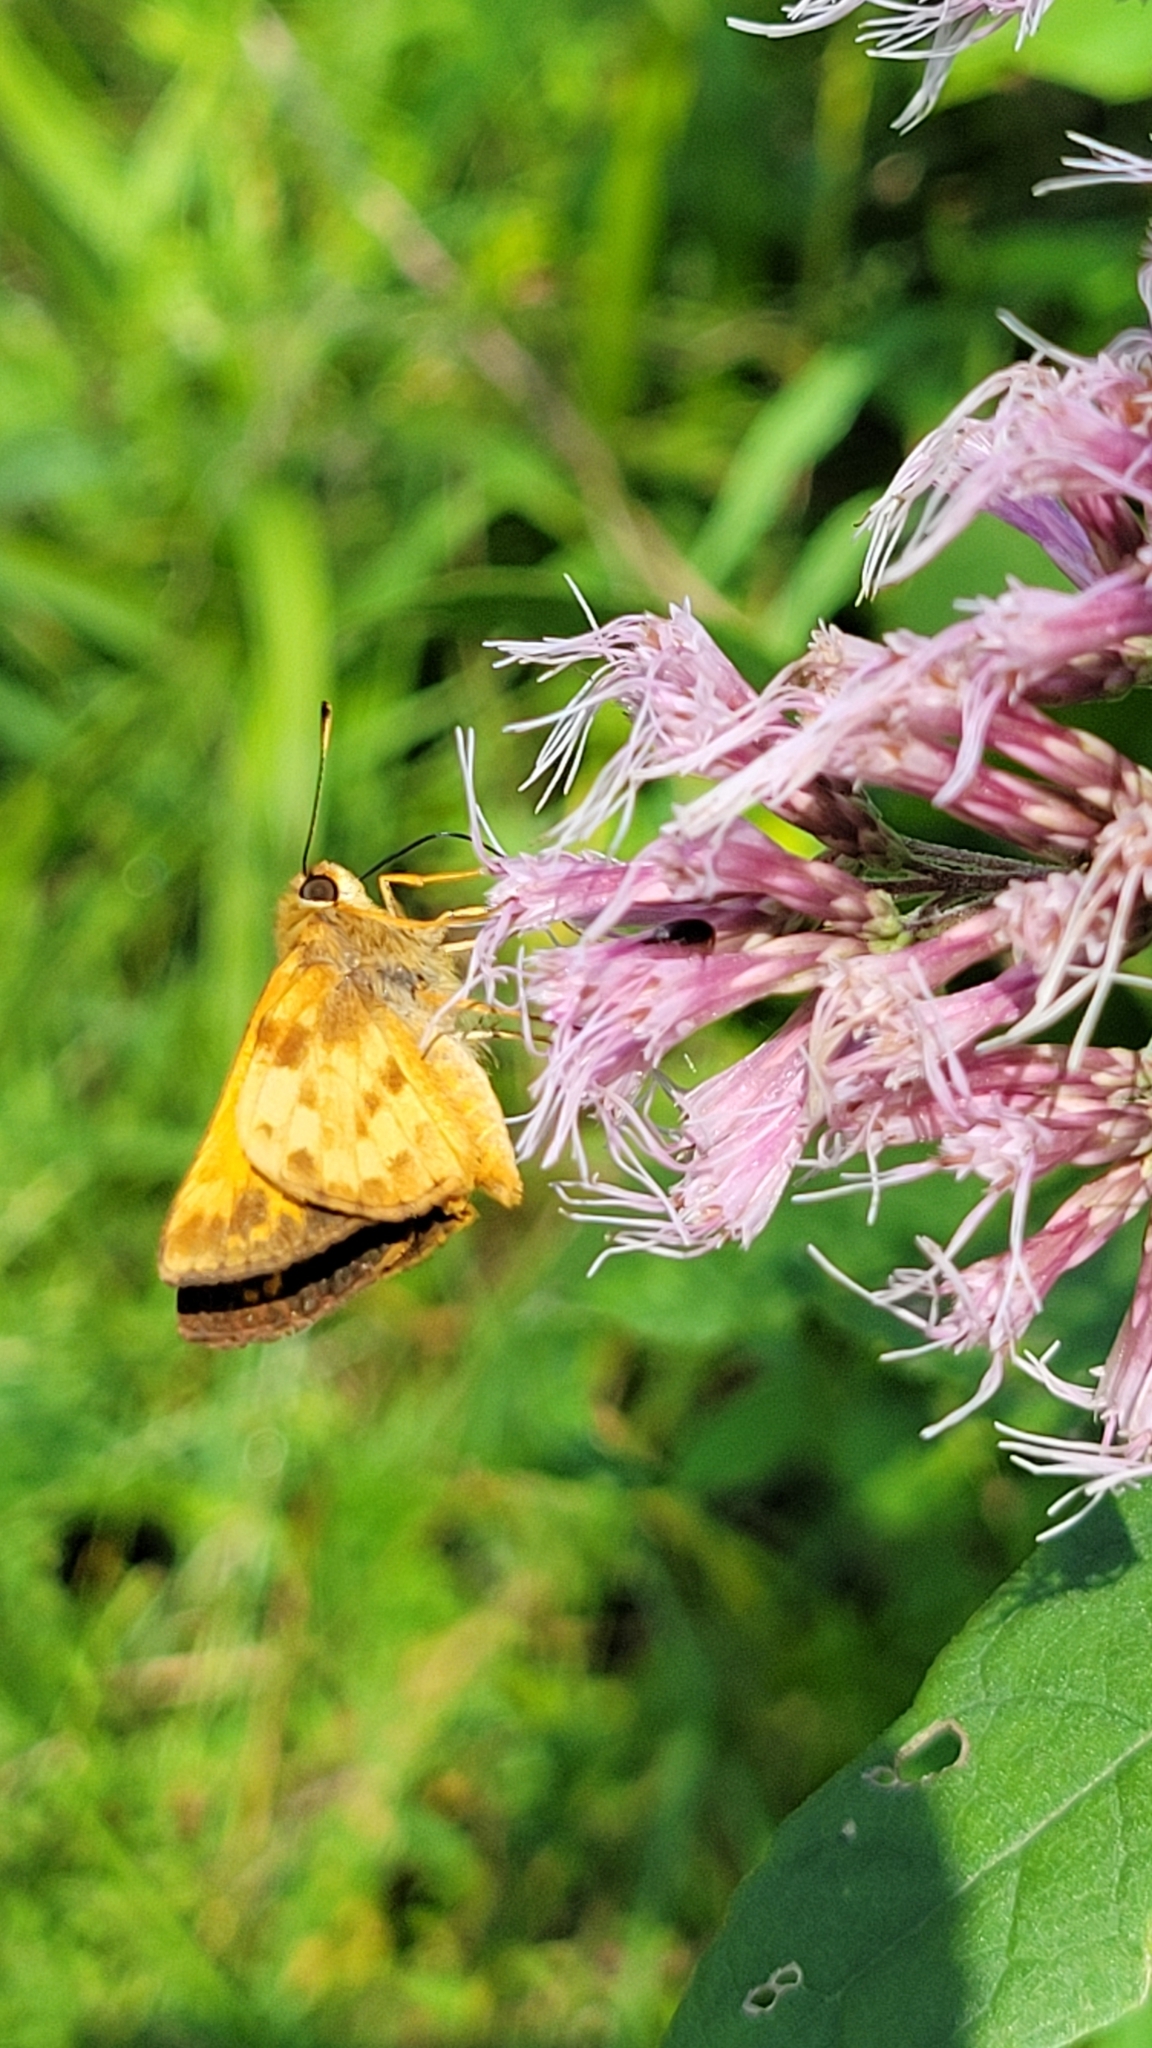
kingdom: Animalia
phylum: Arthropoda
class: Insecta
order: Lepidoptera
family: Hesperiidae
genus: Lon
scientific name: Lon zabulon
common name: Zabulon skipper
